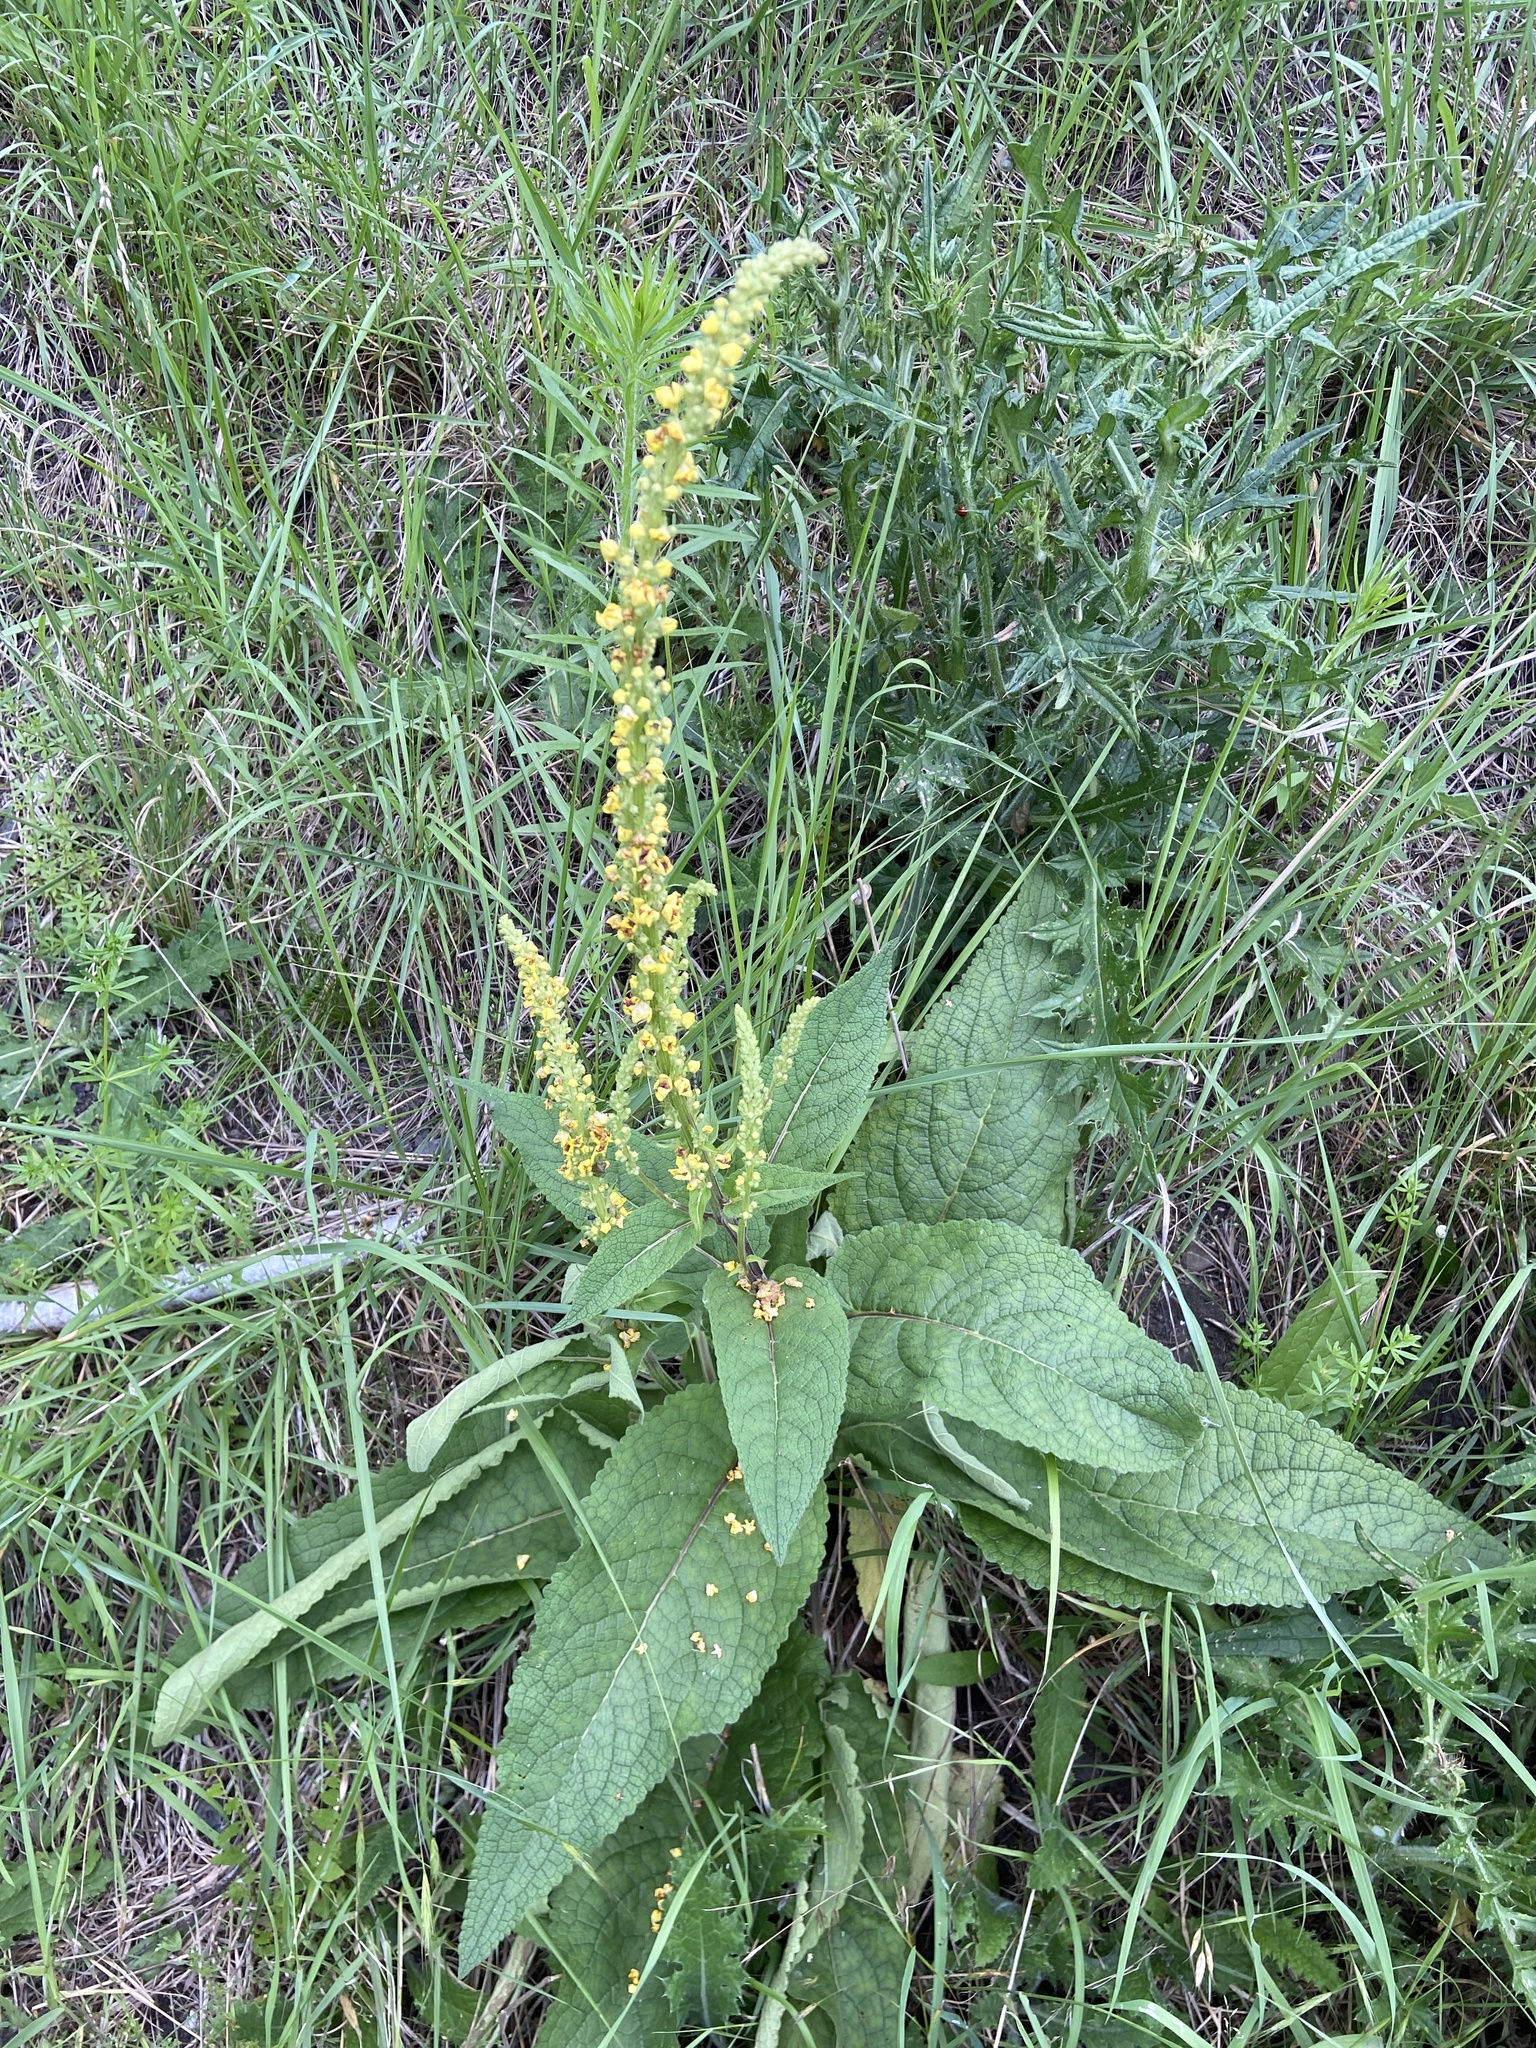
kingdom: Plantae
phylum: Tracheophyta
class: Magnoliopsida
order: Lamiales
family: Scrophulariaceae
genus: Verbascum
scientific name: Verbascum nigrum
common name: Dark mullein
